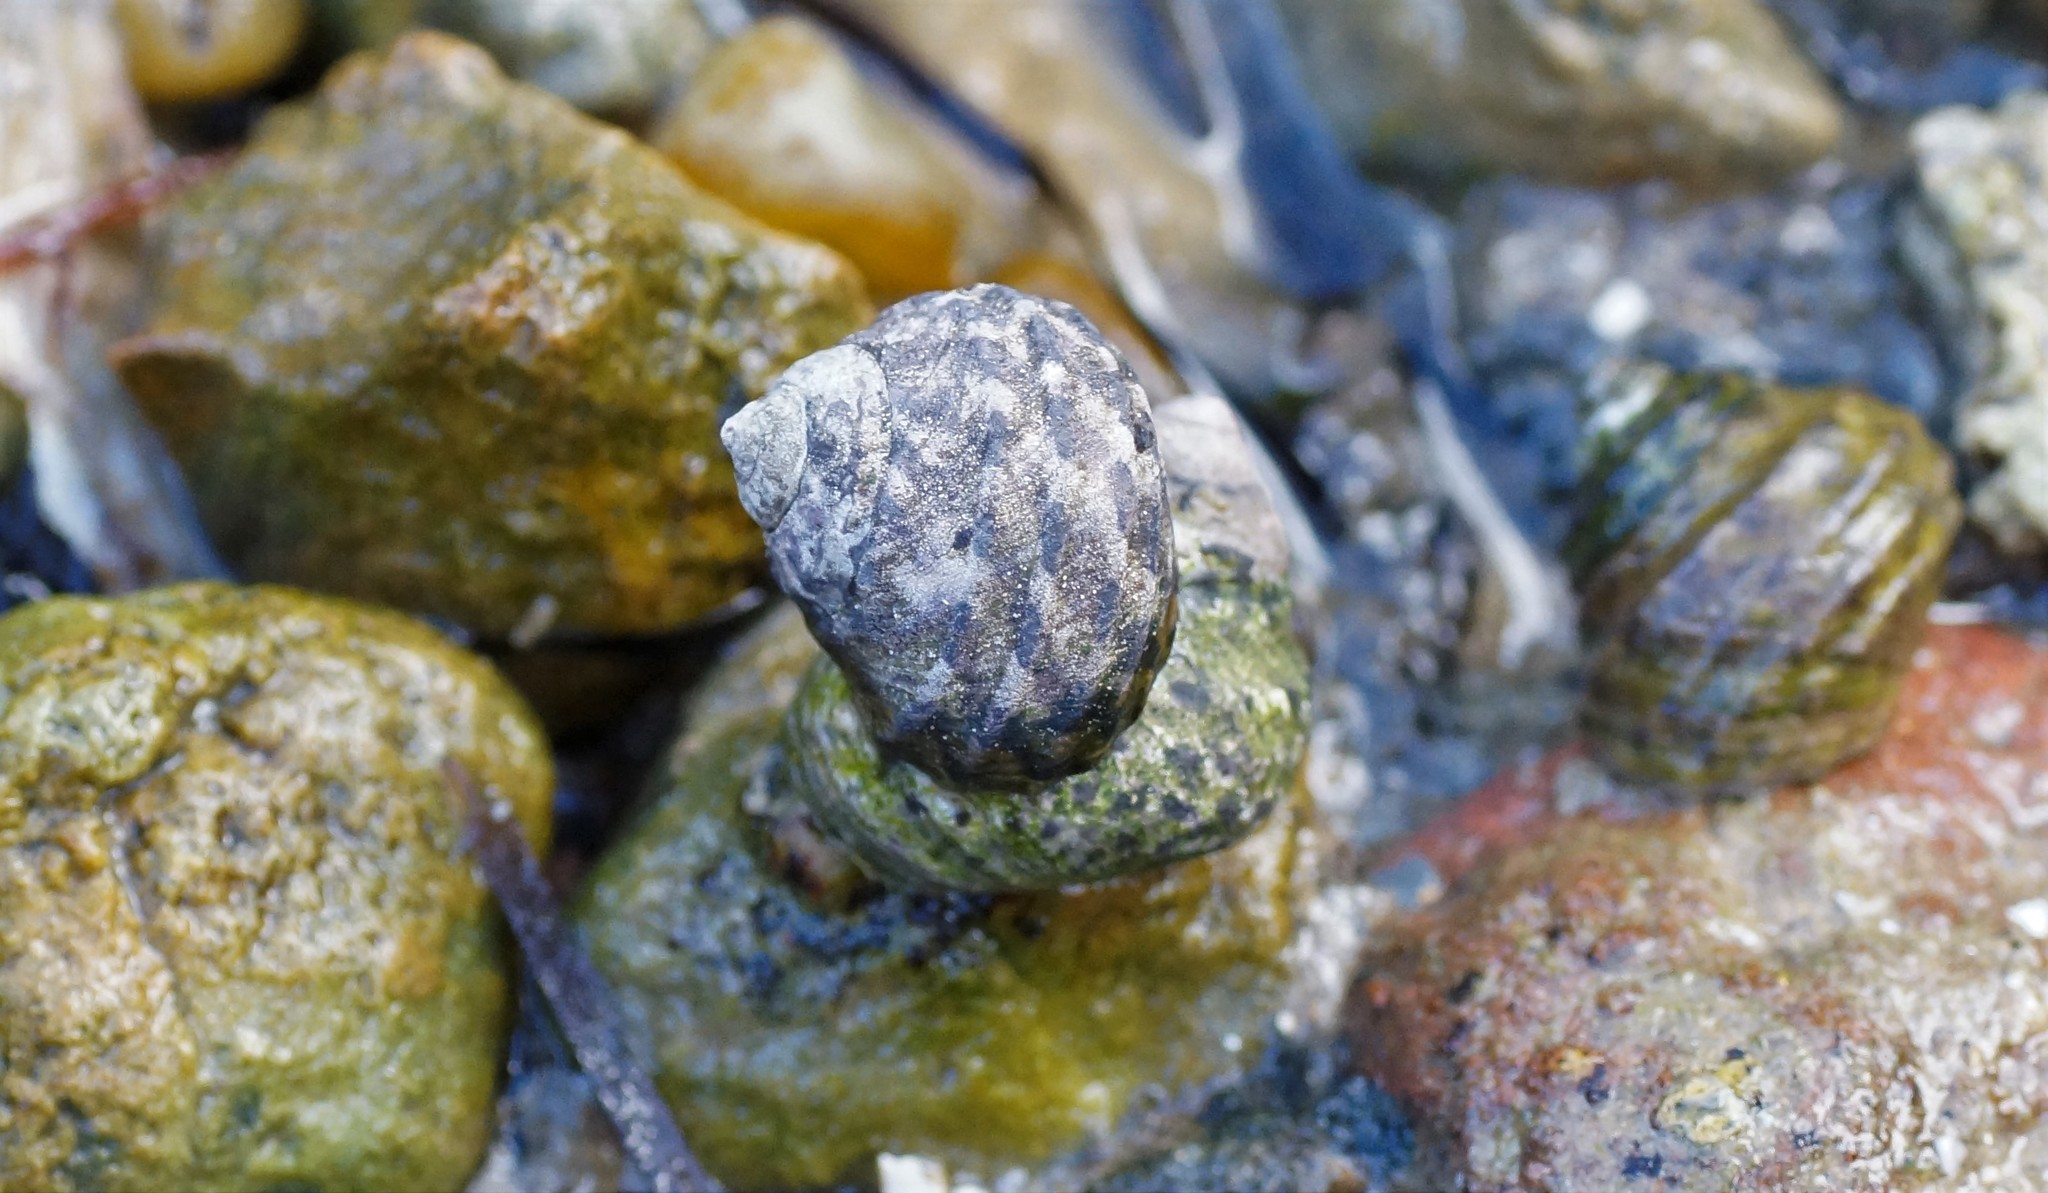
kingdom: Animalia
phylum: Mollusca
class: Gastropoda
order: Trochida
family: Trochidae
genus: Austrocochlea
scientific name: Austrocochlea porcata
